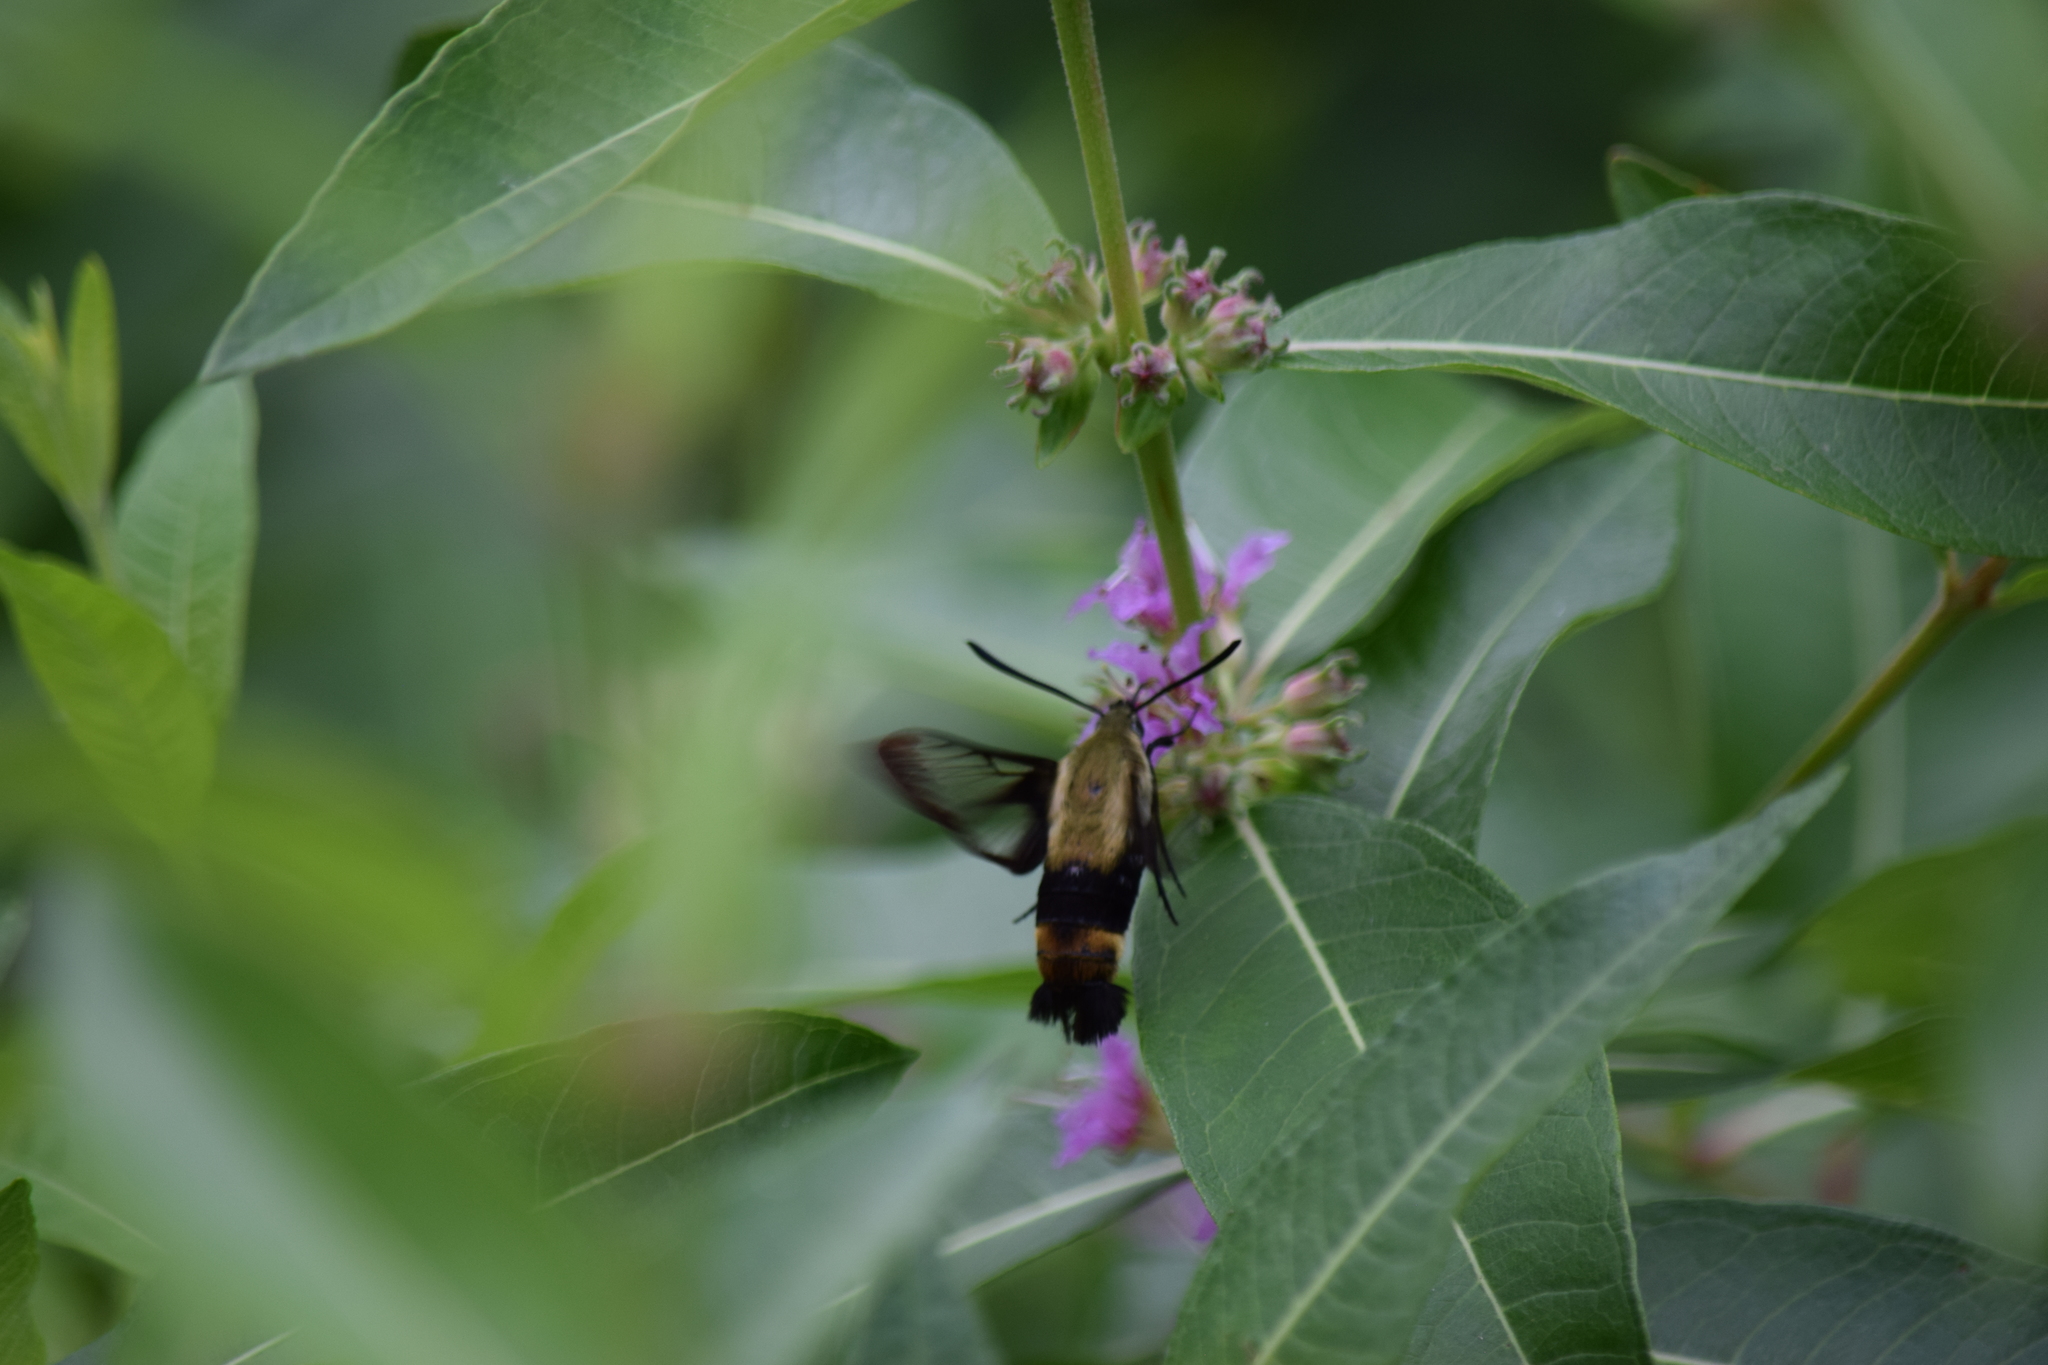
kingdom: Animalia
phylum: Arthropoda
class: Insecta
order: Lepidoptera
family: Sphingidae
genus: Hemaris
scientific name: Hemaris diffinis
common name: Bumblebee moth
